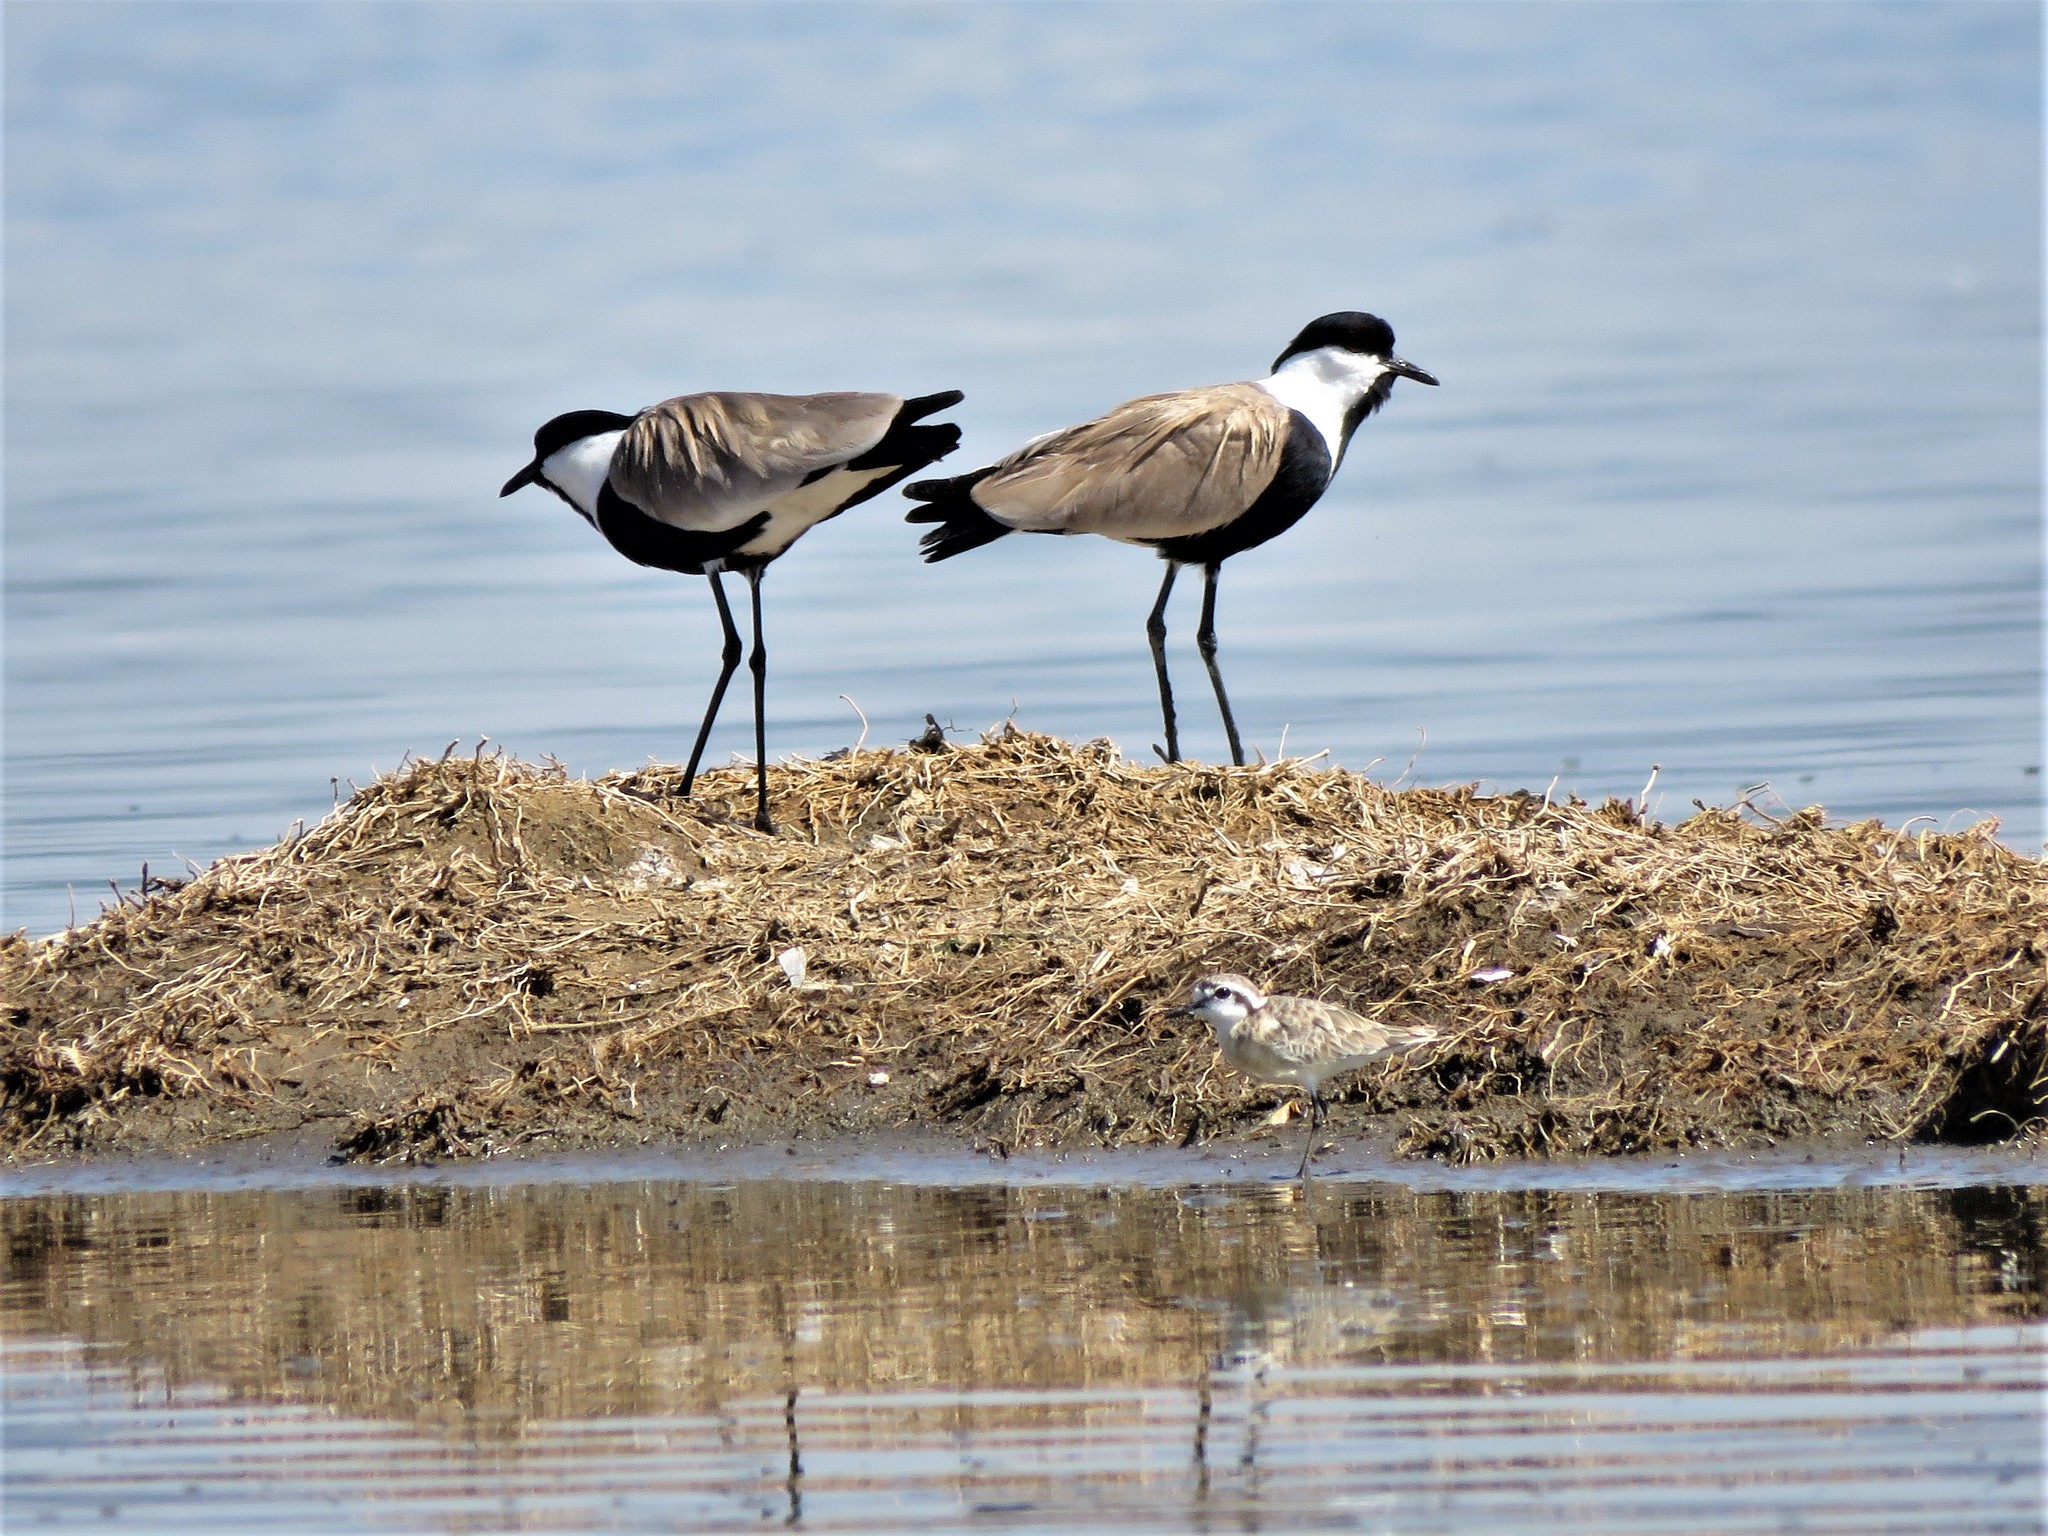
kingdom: Animalia
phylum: Chordata
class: Aves
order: Charadriiformes
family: Charadriidae
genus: Vanellus
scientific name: Vanellus spinosus
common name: Spur-winged lapwing
